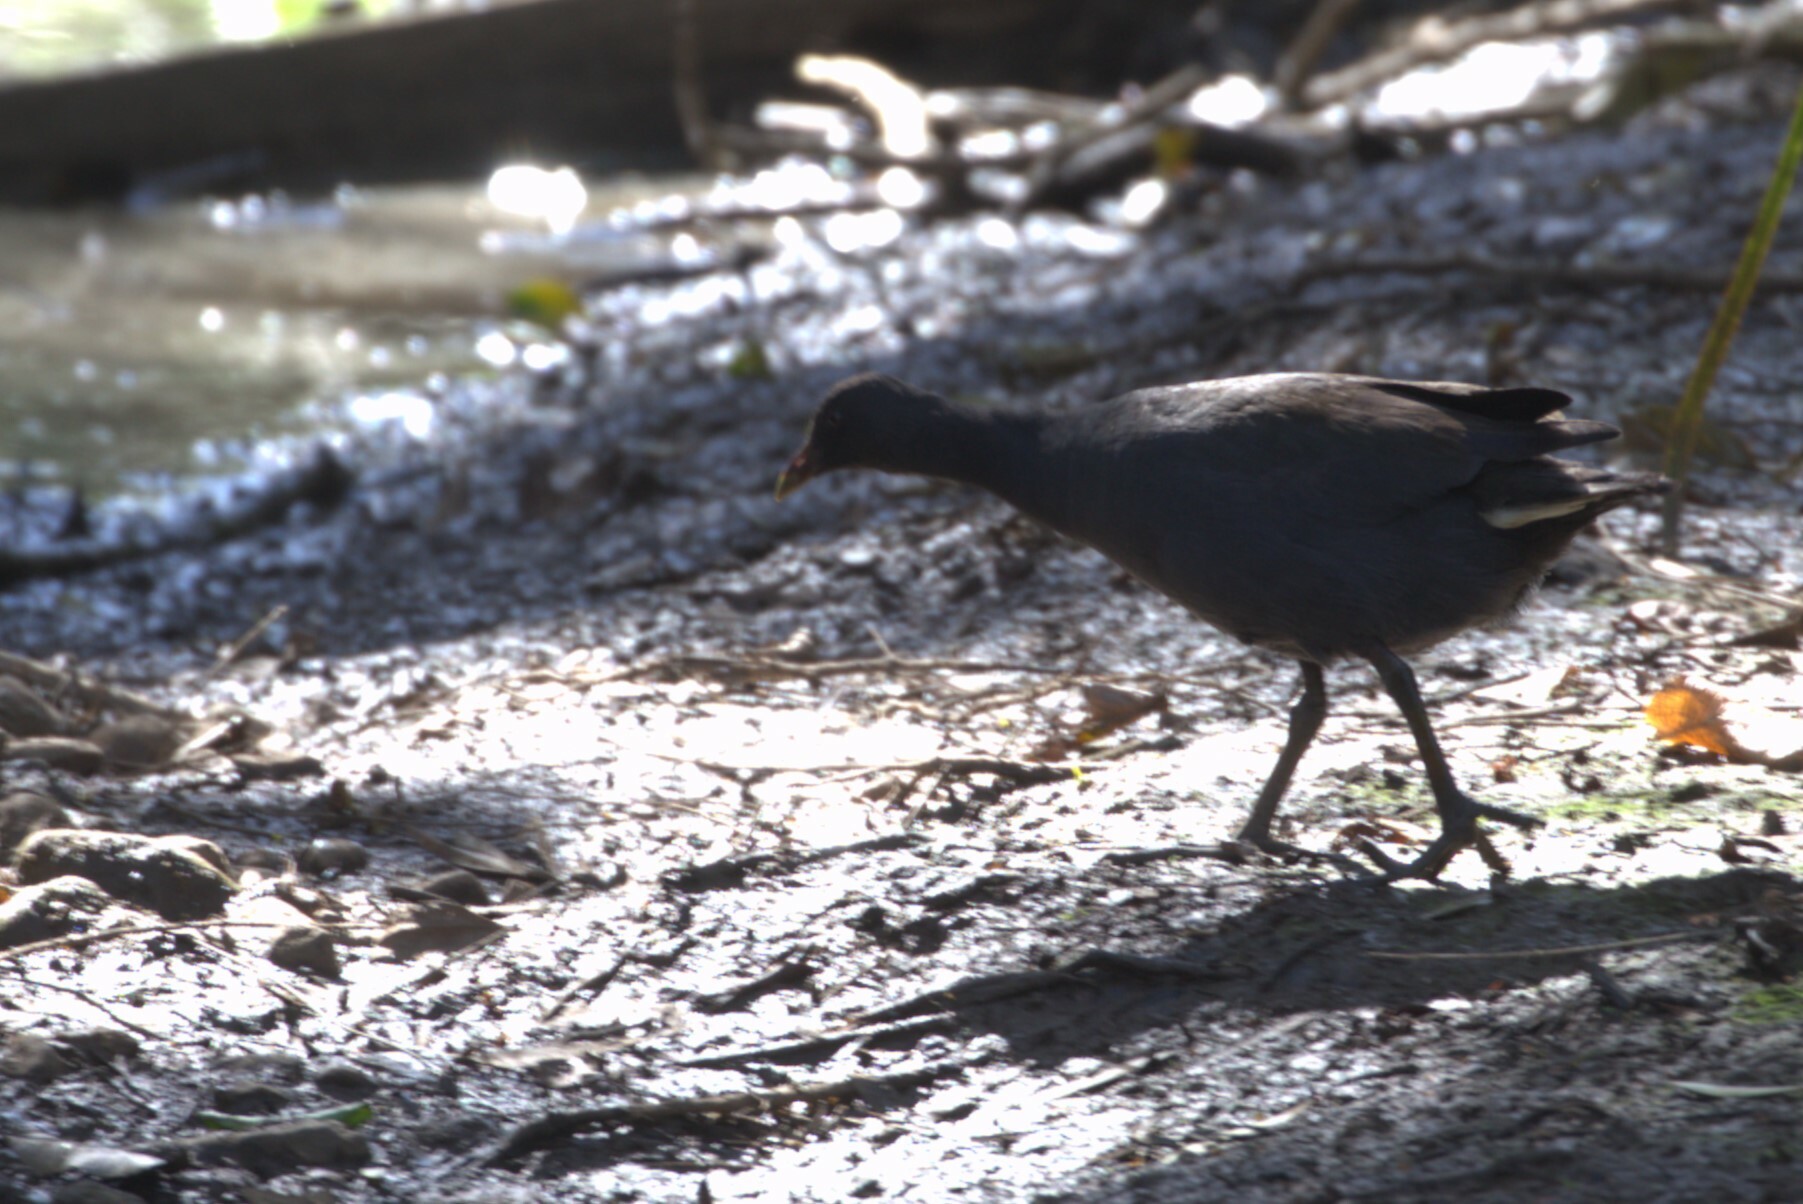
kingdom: Animalia
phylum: Chordata
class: Aves
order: Gruiformes
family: Rallidae
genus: Gallinula
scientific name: Gallinula tenebrosa
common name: Dusky moorhen
